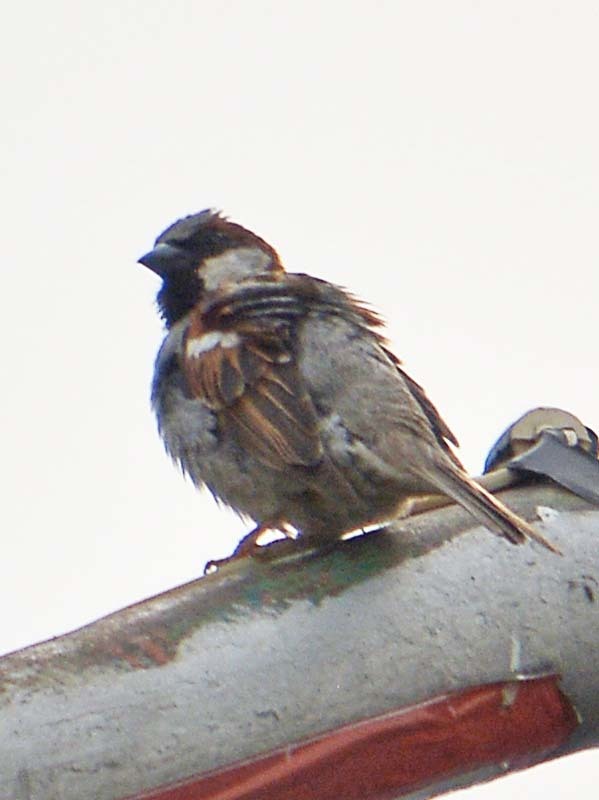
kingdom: Animalia
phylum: Chordata
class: Aves
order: Passeriformes
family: Passeridae
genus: Passer
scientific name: Passer domesticus
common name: House sparrow
